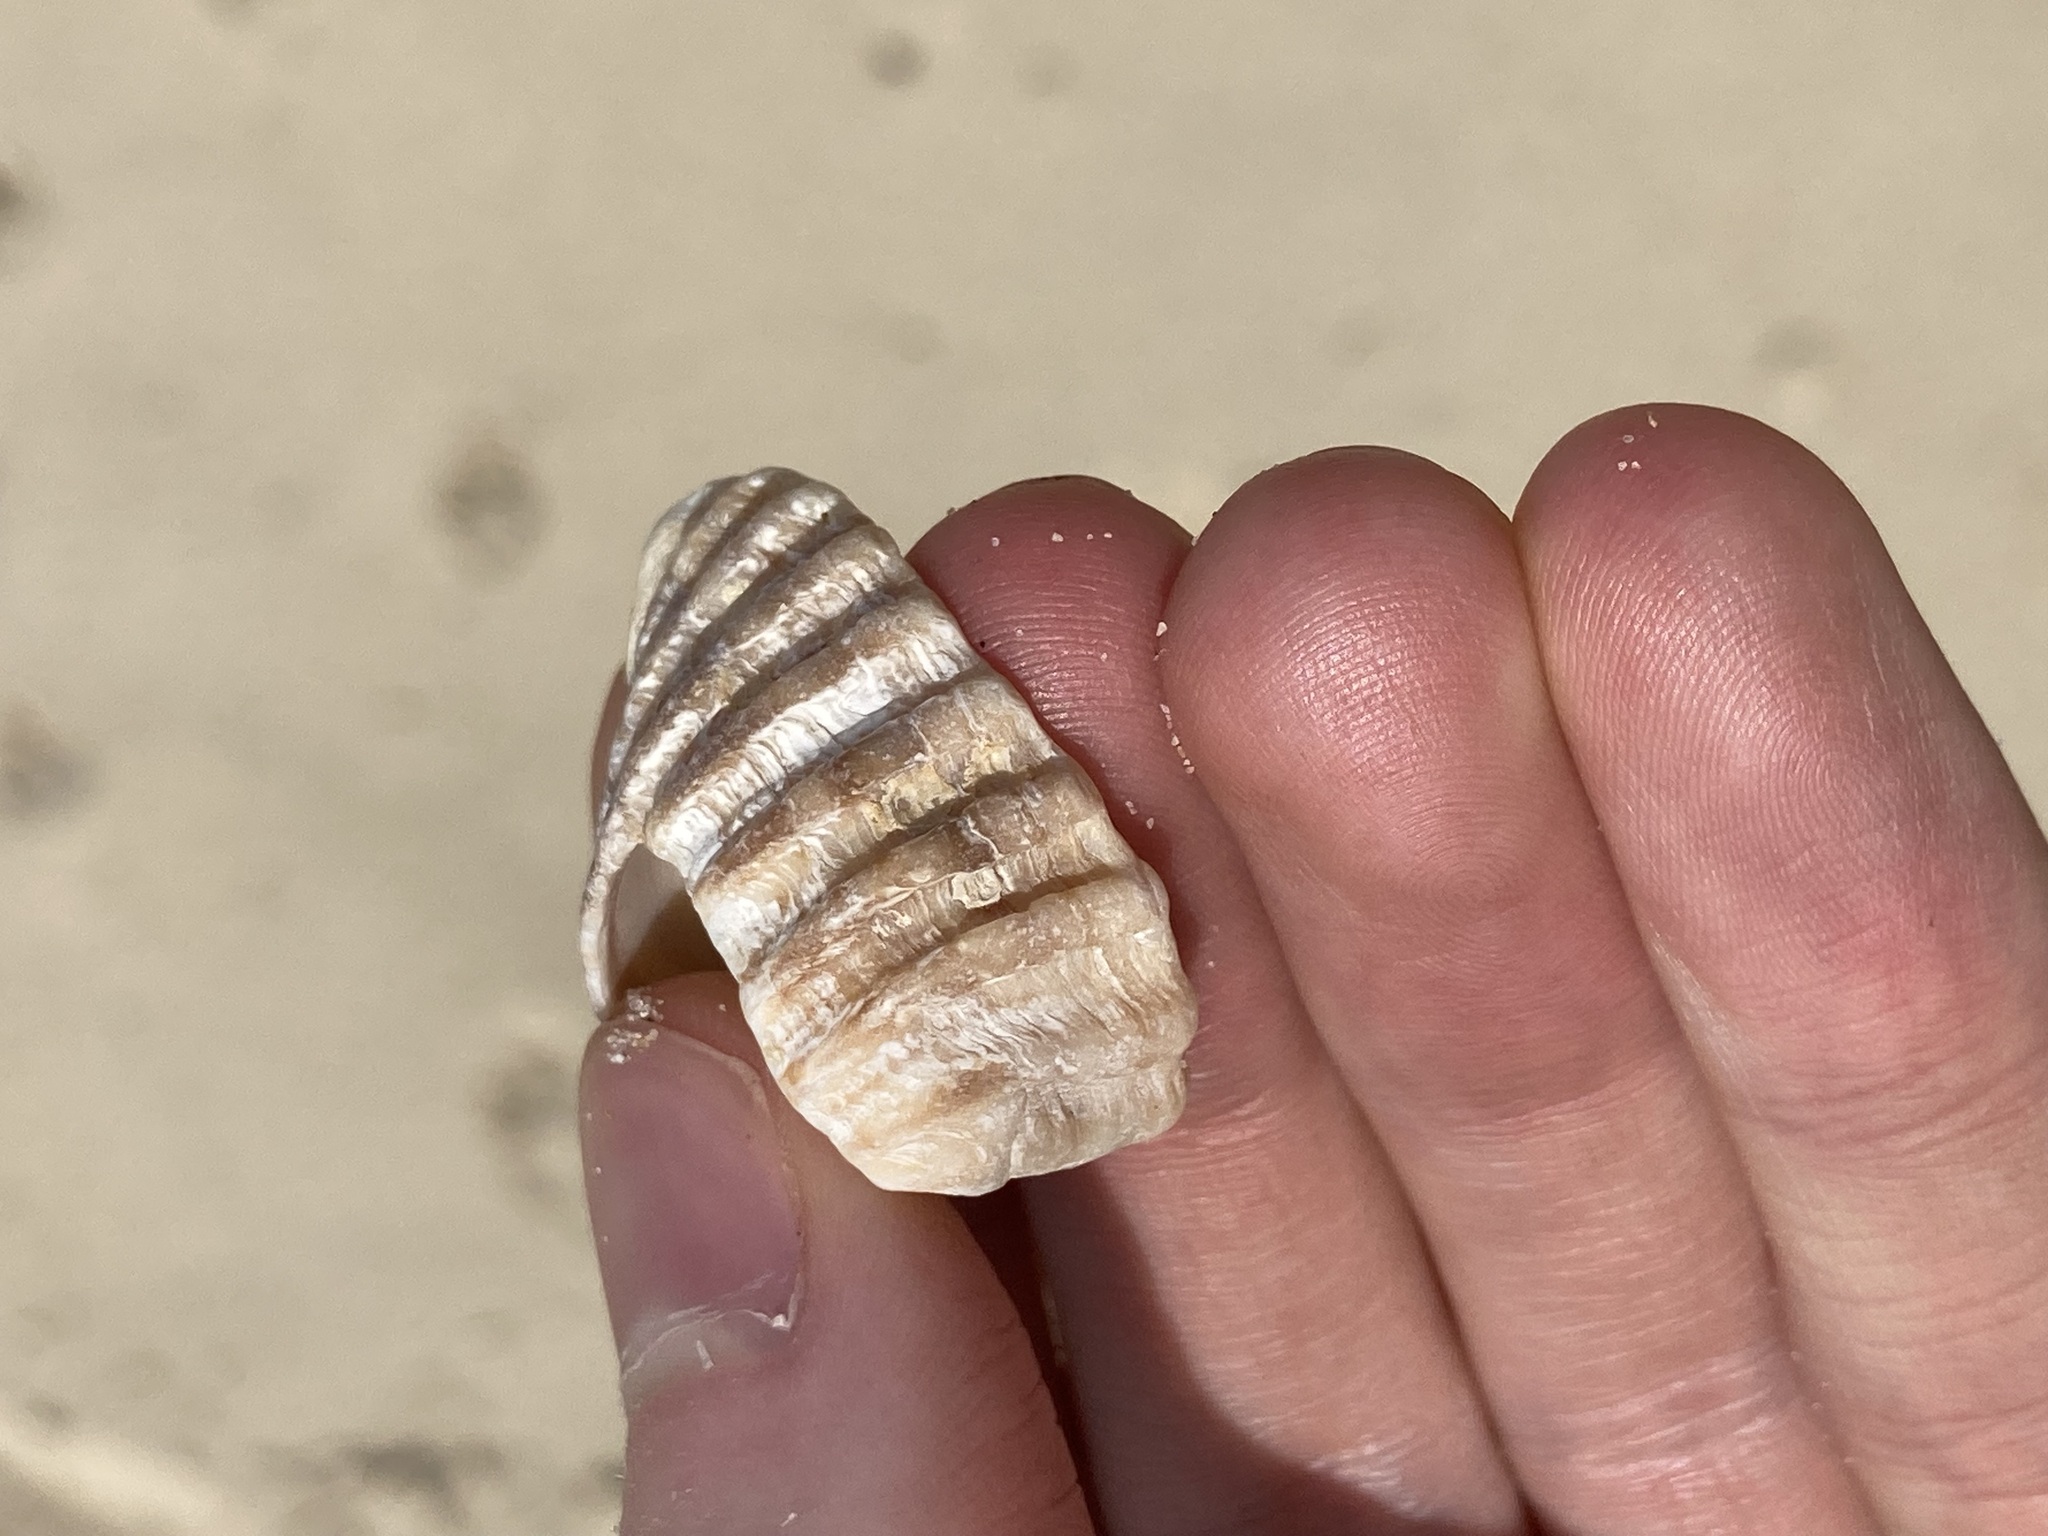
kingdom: Animalia
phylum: Mollusca
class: Gastropoda
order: Neogastropoda
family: Muricidae
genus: Dicathais
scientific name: Dicathais orbita
